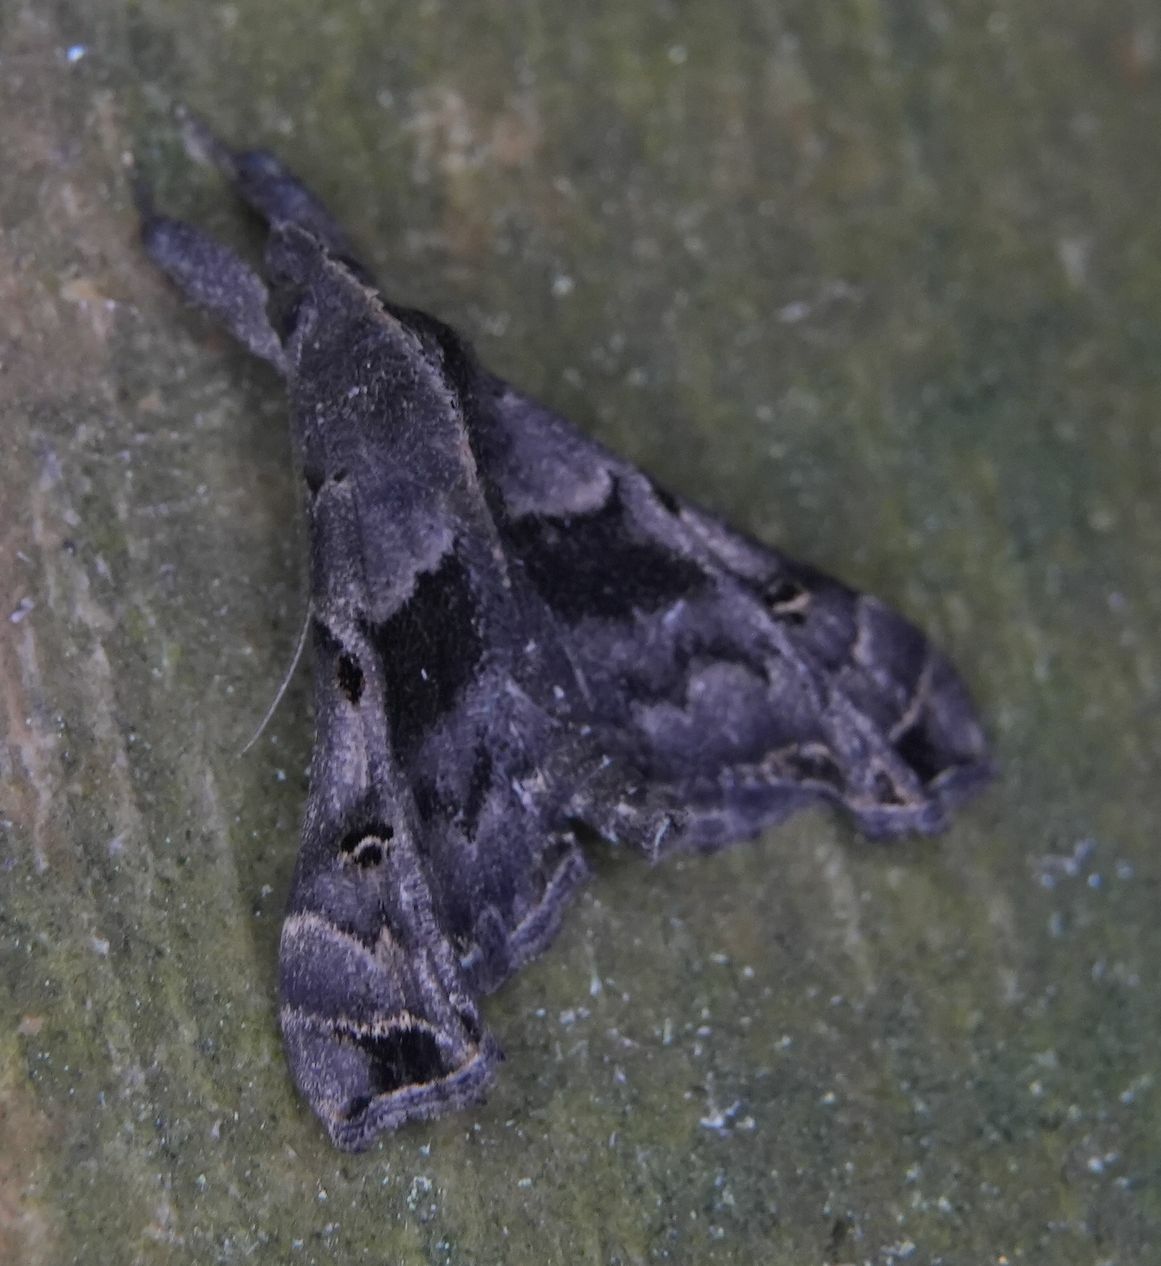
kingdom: Animalia
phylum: Arthropoda
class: Insecta
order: Lepidoptera
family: Erebidae
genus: Palthis
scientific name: Palthis asopialis
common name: Faint-spotted palthis moth
